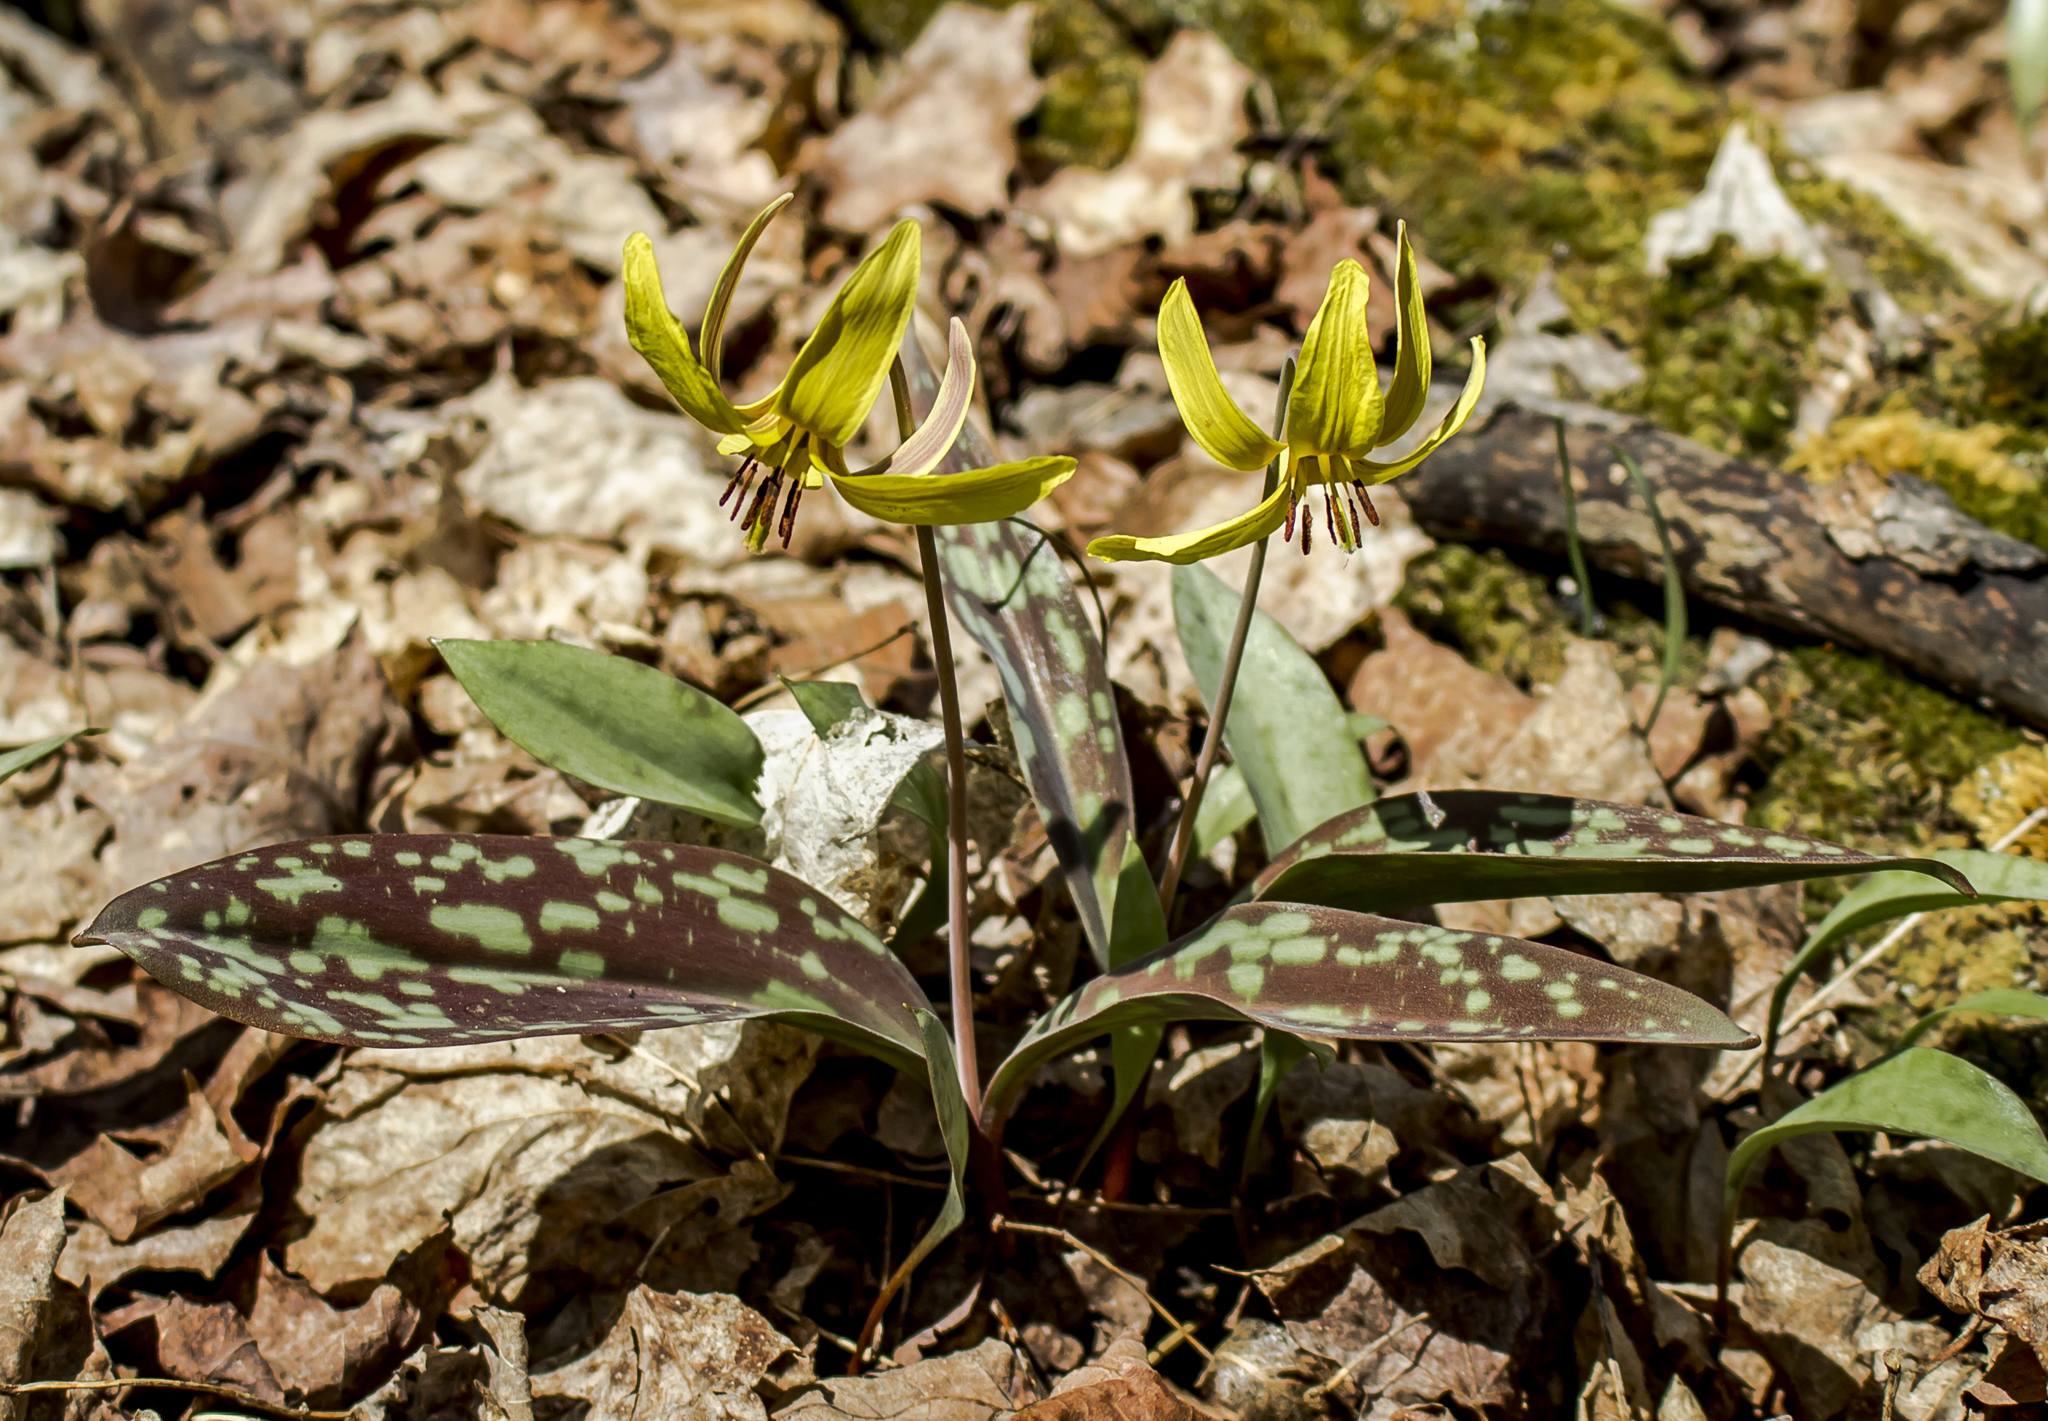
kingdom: Plantae
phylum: Tracheophyta
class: Liliopsida
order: Liliales
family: Liliaceae
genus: Erythronium
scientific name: Erythronium americanum
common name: Yellow adder's-tongue
